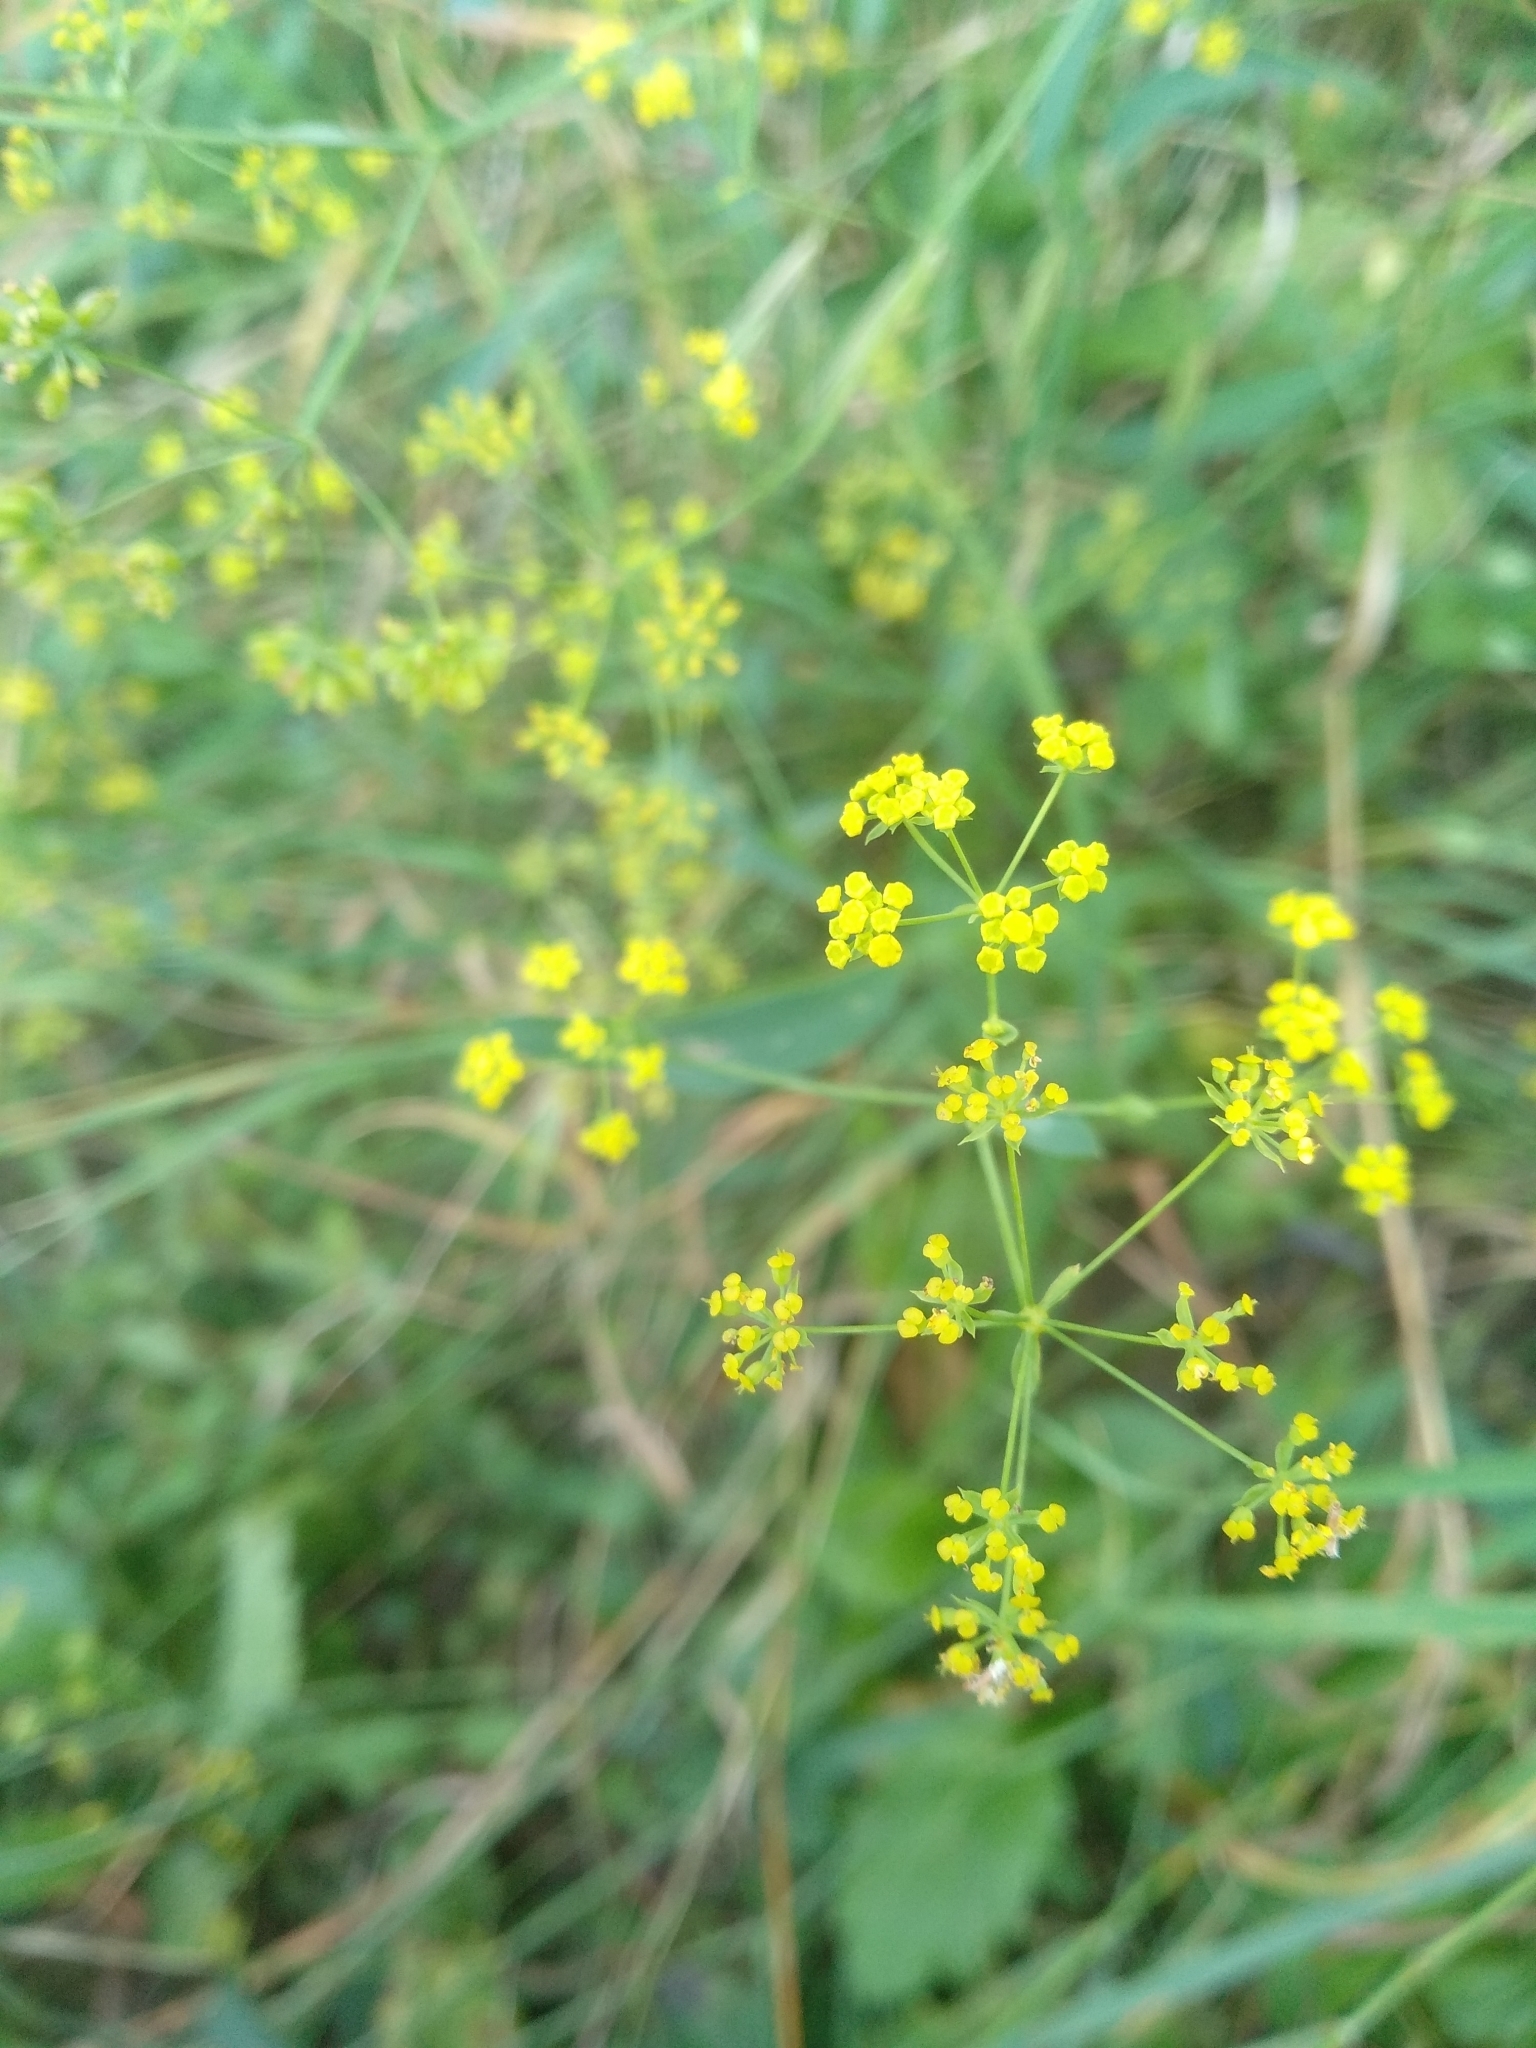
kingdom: Plantae
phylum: Tracheophyta
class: Magnoliopsida
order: Apiales
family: Apiaceae
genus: Bupleurum
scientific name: Bupleurum falcatum
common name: Sickle-leaved hare's-ear
